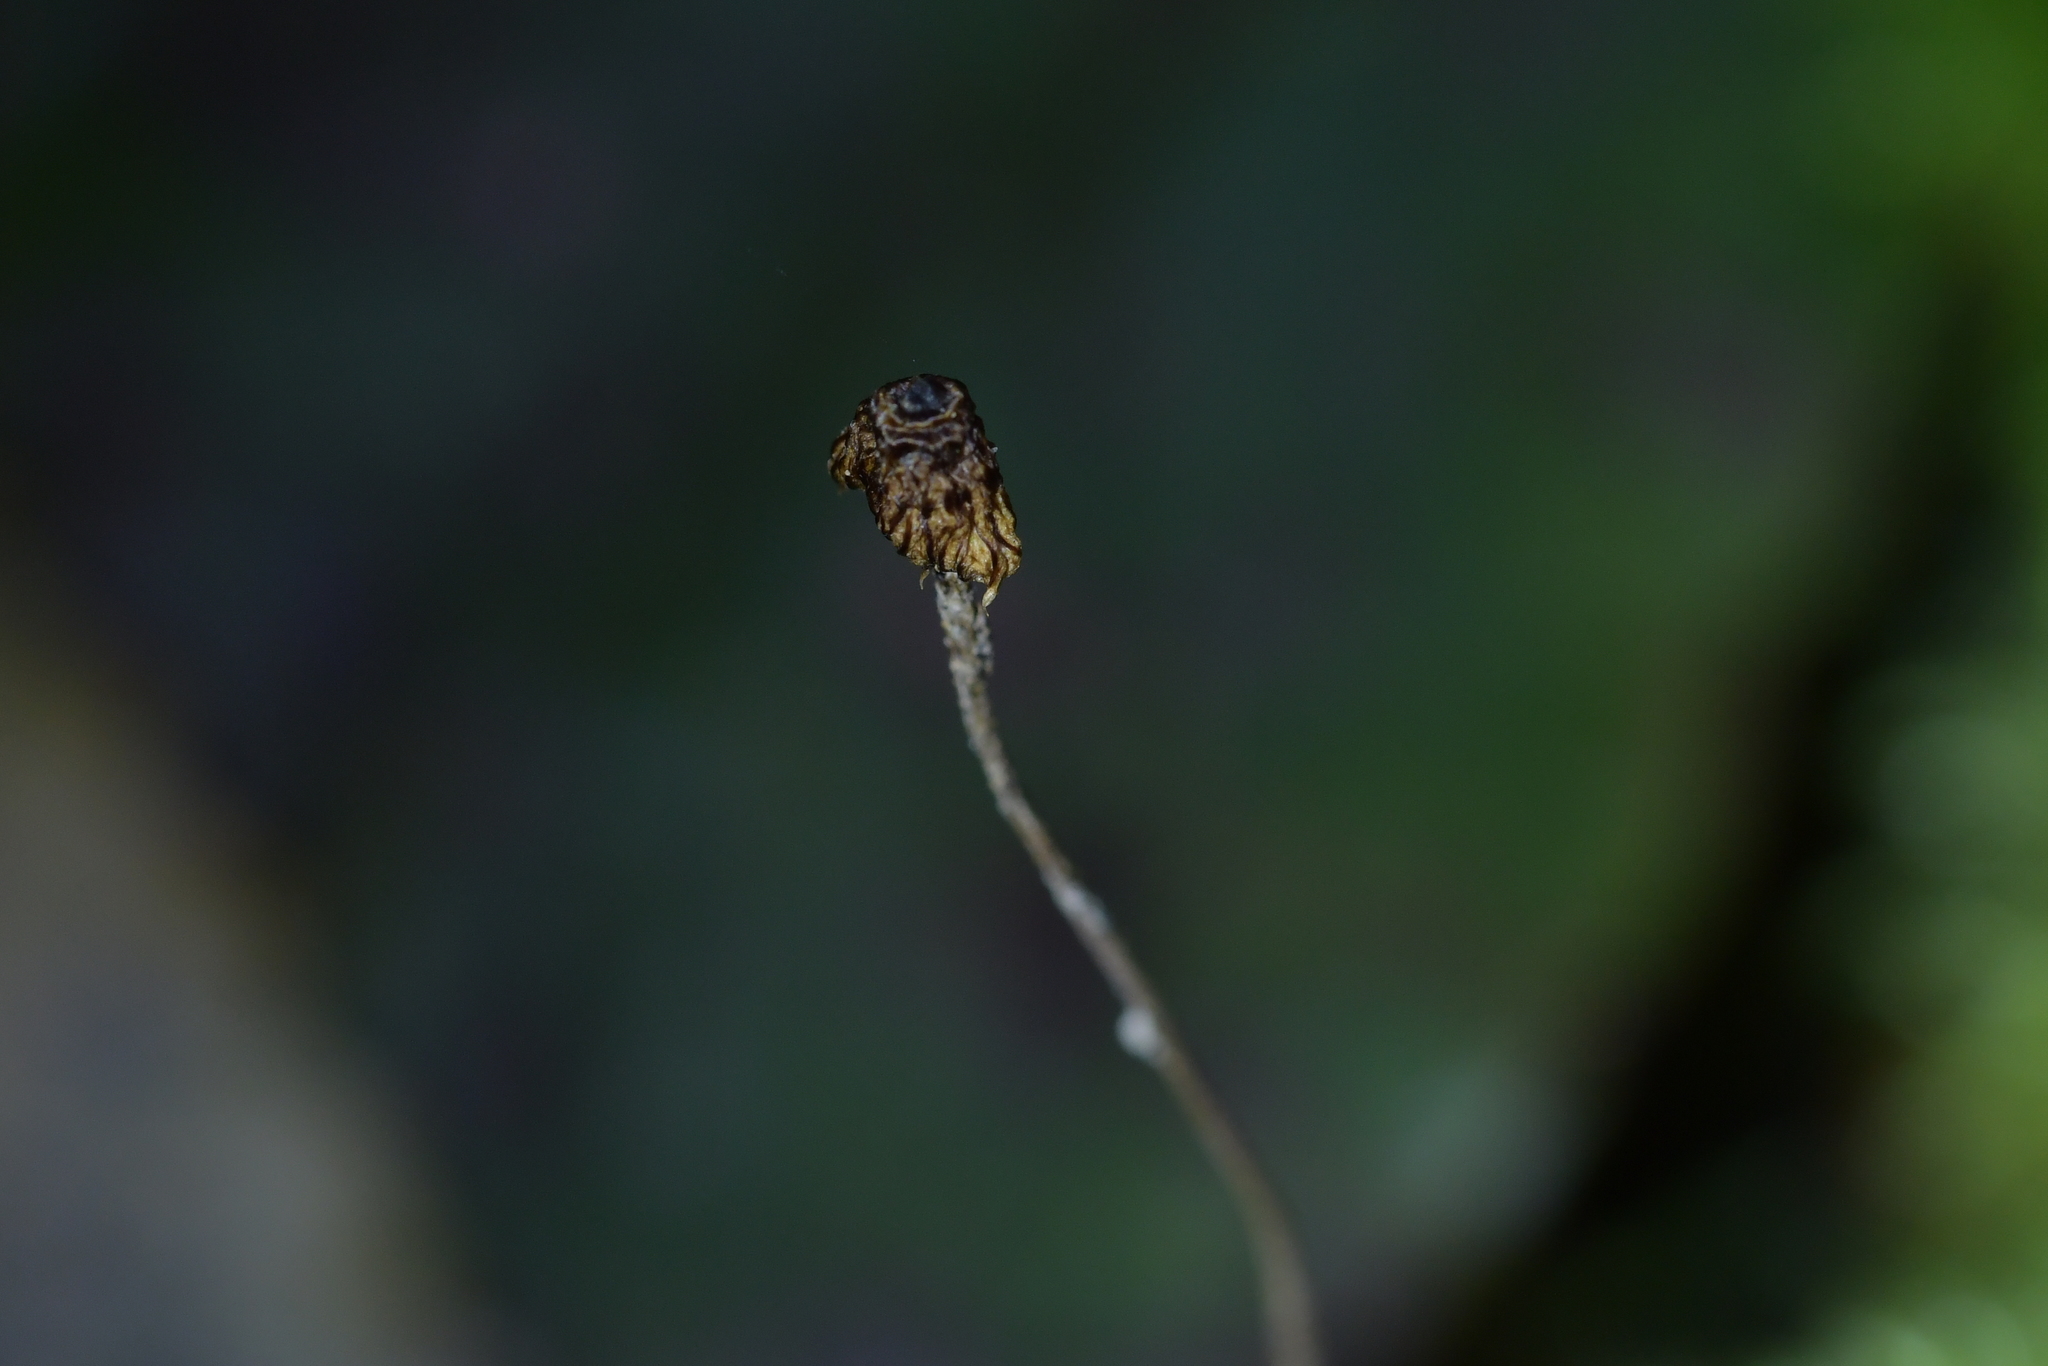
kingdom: Fungi
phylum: Basidiomycota
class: Agaricomycetes
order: Agaricales
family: Marasmiaceae
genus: Crinipellis
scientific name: Crinipellis procera
